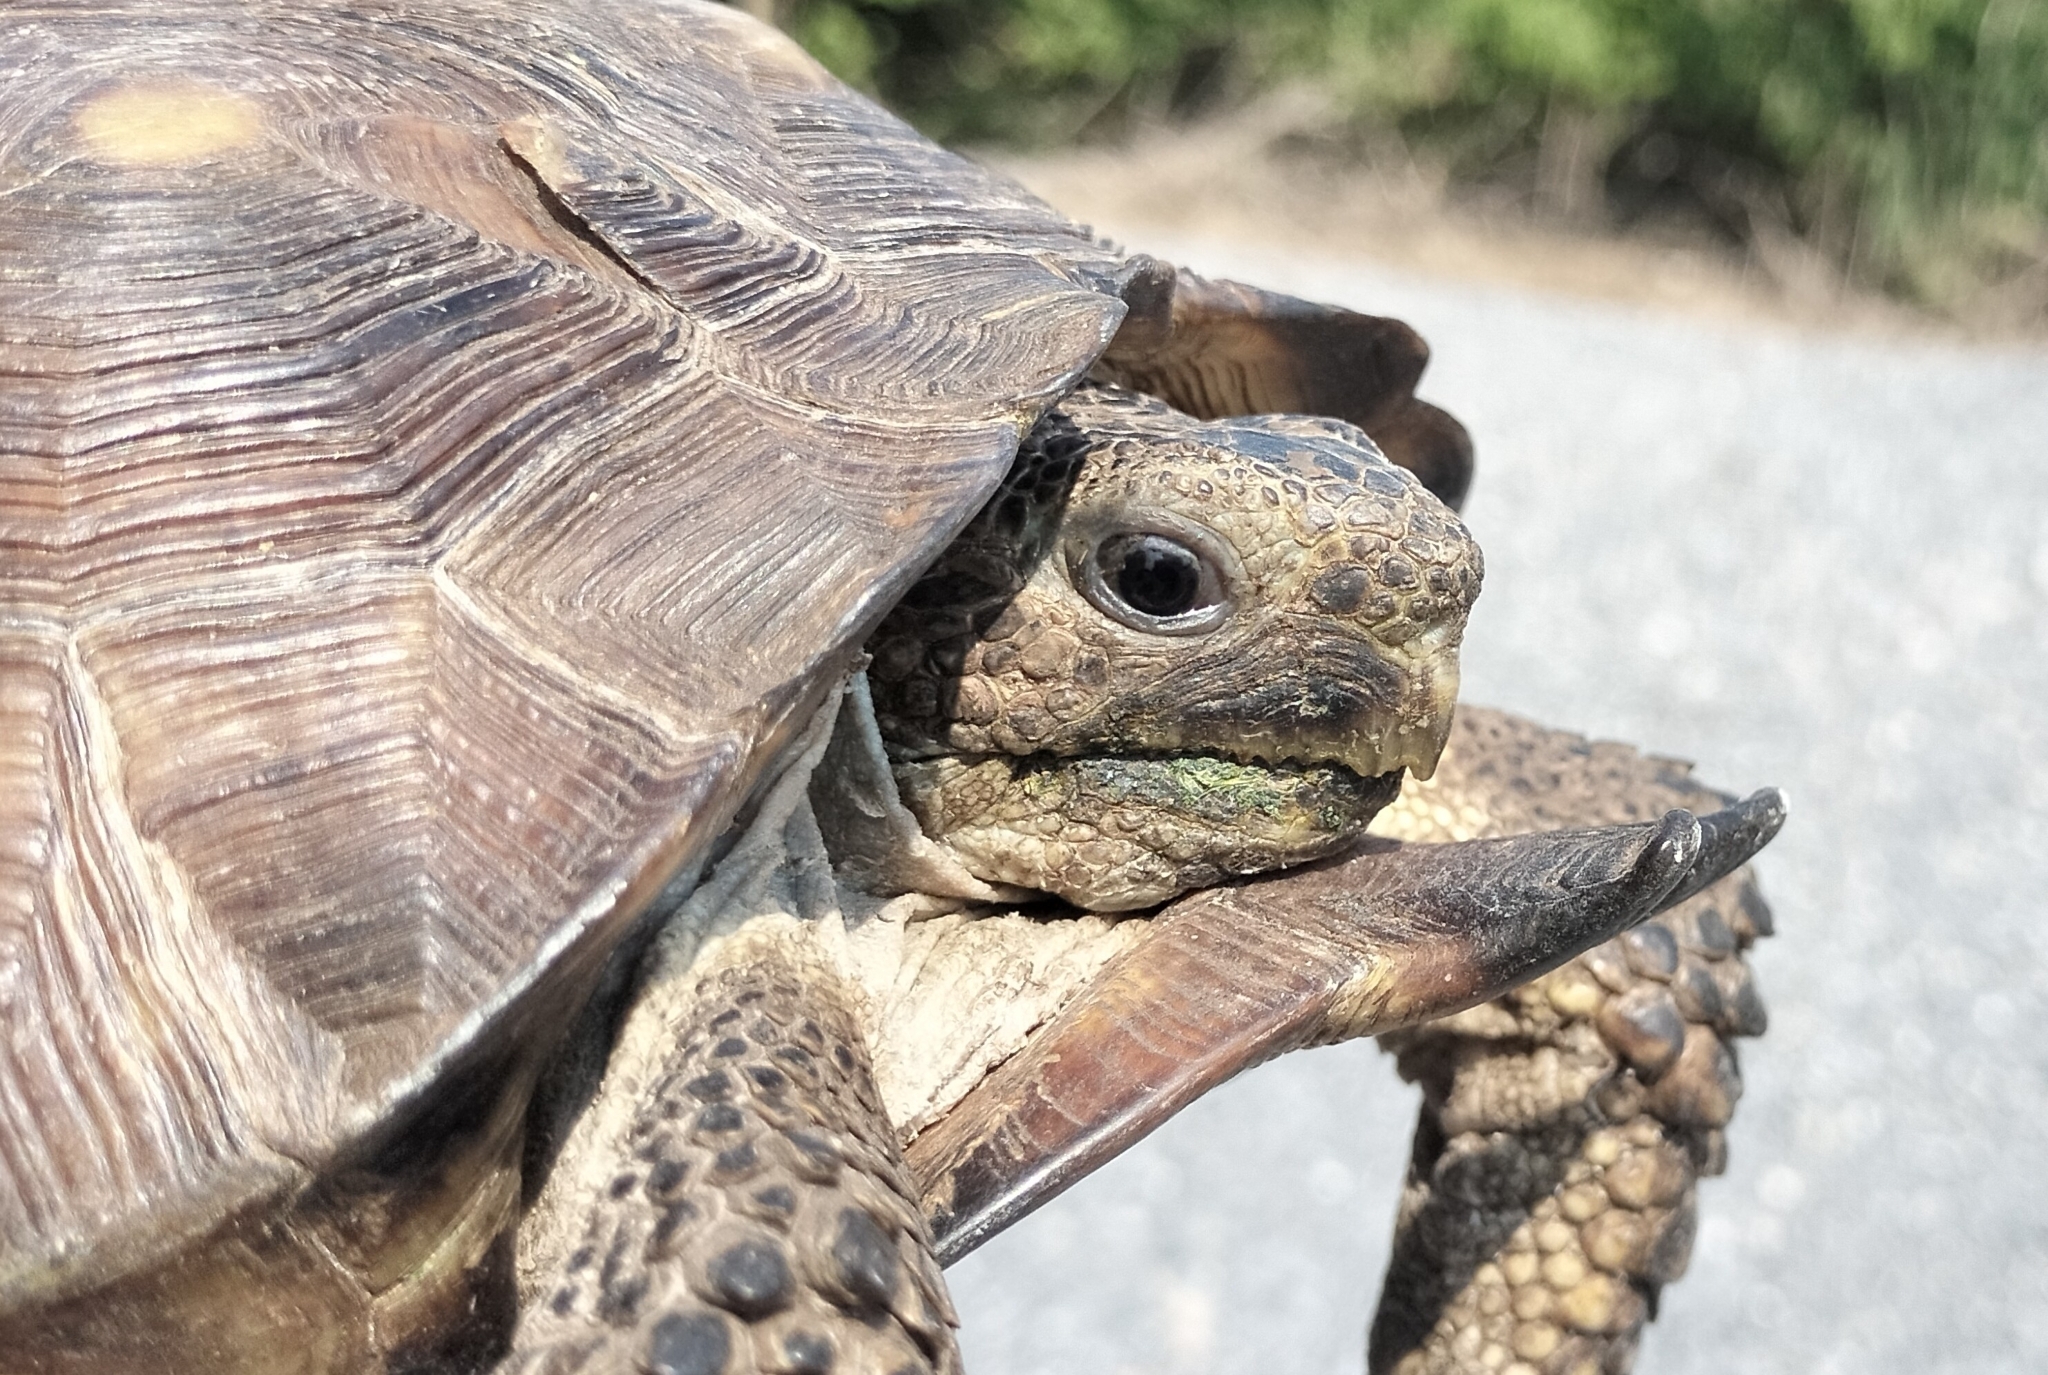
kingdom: Animalia
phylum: Chordata
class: Testudines
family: Testudinidae
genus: Gopherus
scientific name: Gopherus berlandieri
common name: Texas (gopher )tortoise
